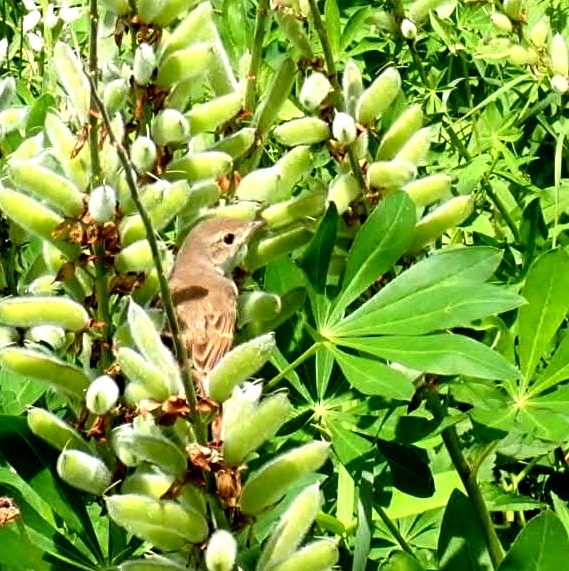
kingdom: Animalia
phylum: Chordata
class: Aves
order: Passeriformes
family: Sylviidae
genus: Sylvia
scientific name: Sylvia communis
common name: Common whitethroat
